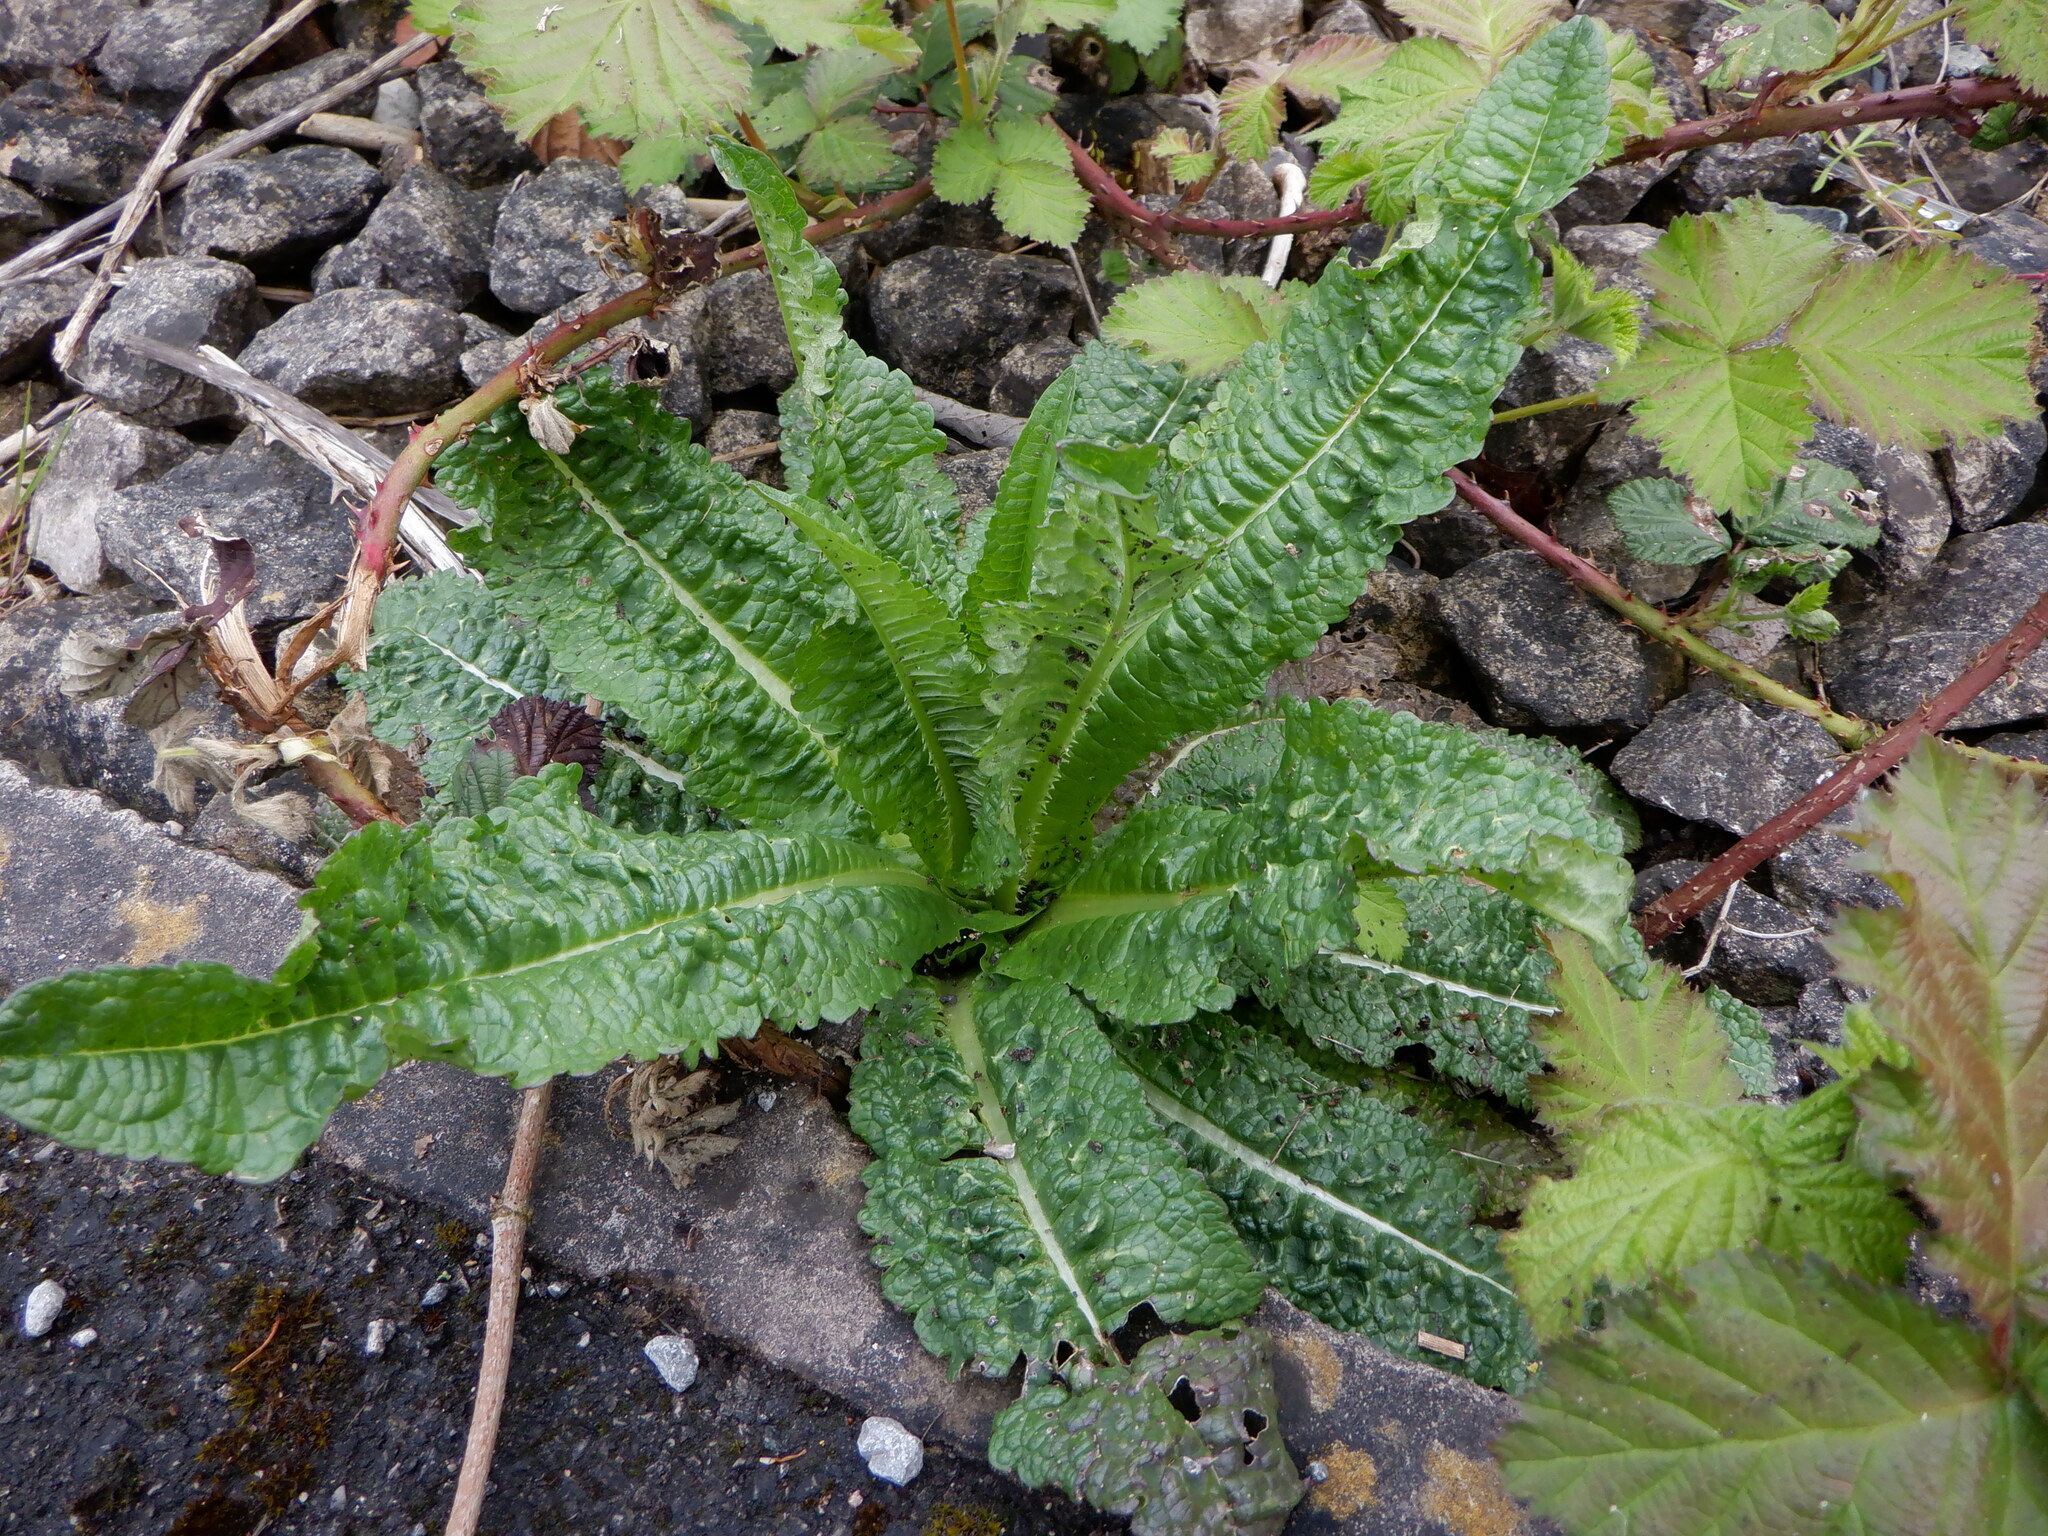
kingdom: Plantae
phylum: Tracheophyta
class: Magnoliopsida
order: Dipsacales
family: Caprifoliaceae
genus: Dipsacus
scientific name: Dipsacus fullonum
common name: Teasel
